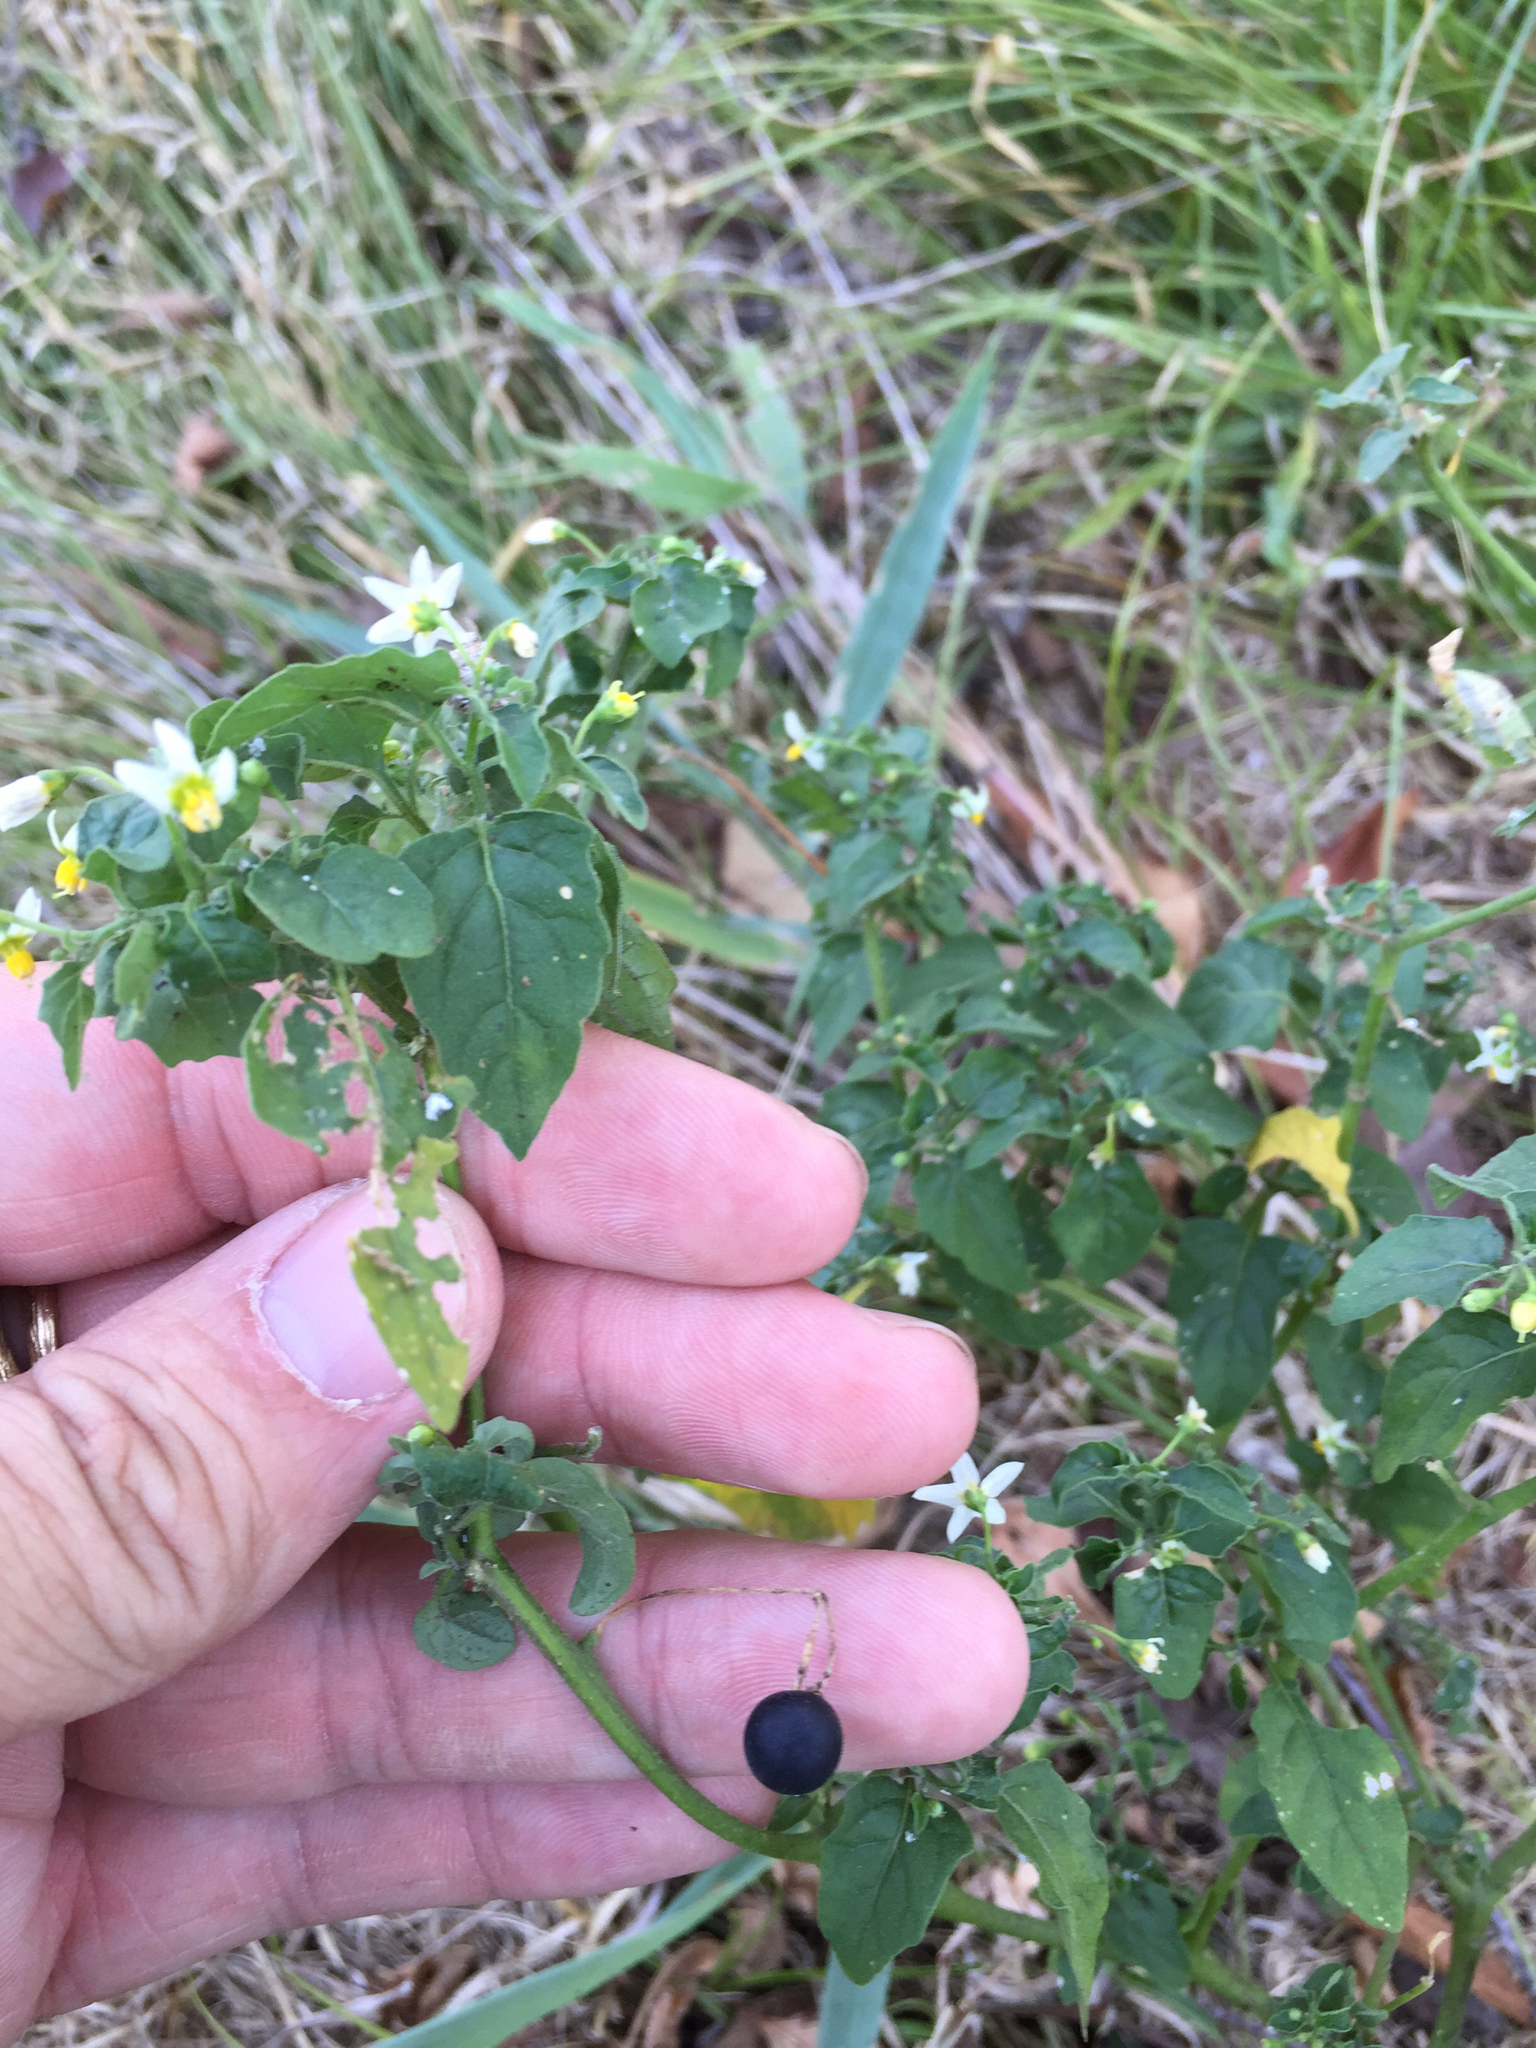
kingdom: Plantae
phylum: Tracheophyta
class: Magnoliopsida
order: Solanales
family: Solanaceae
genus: Solanum
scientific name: Solanum emulans
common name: Eastern black nightshade
